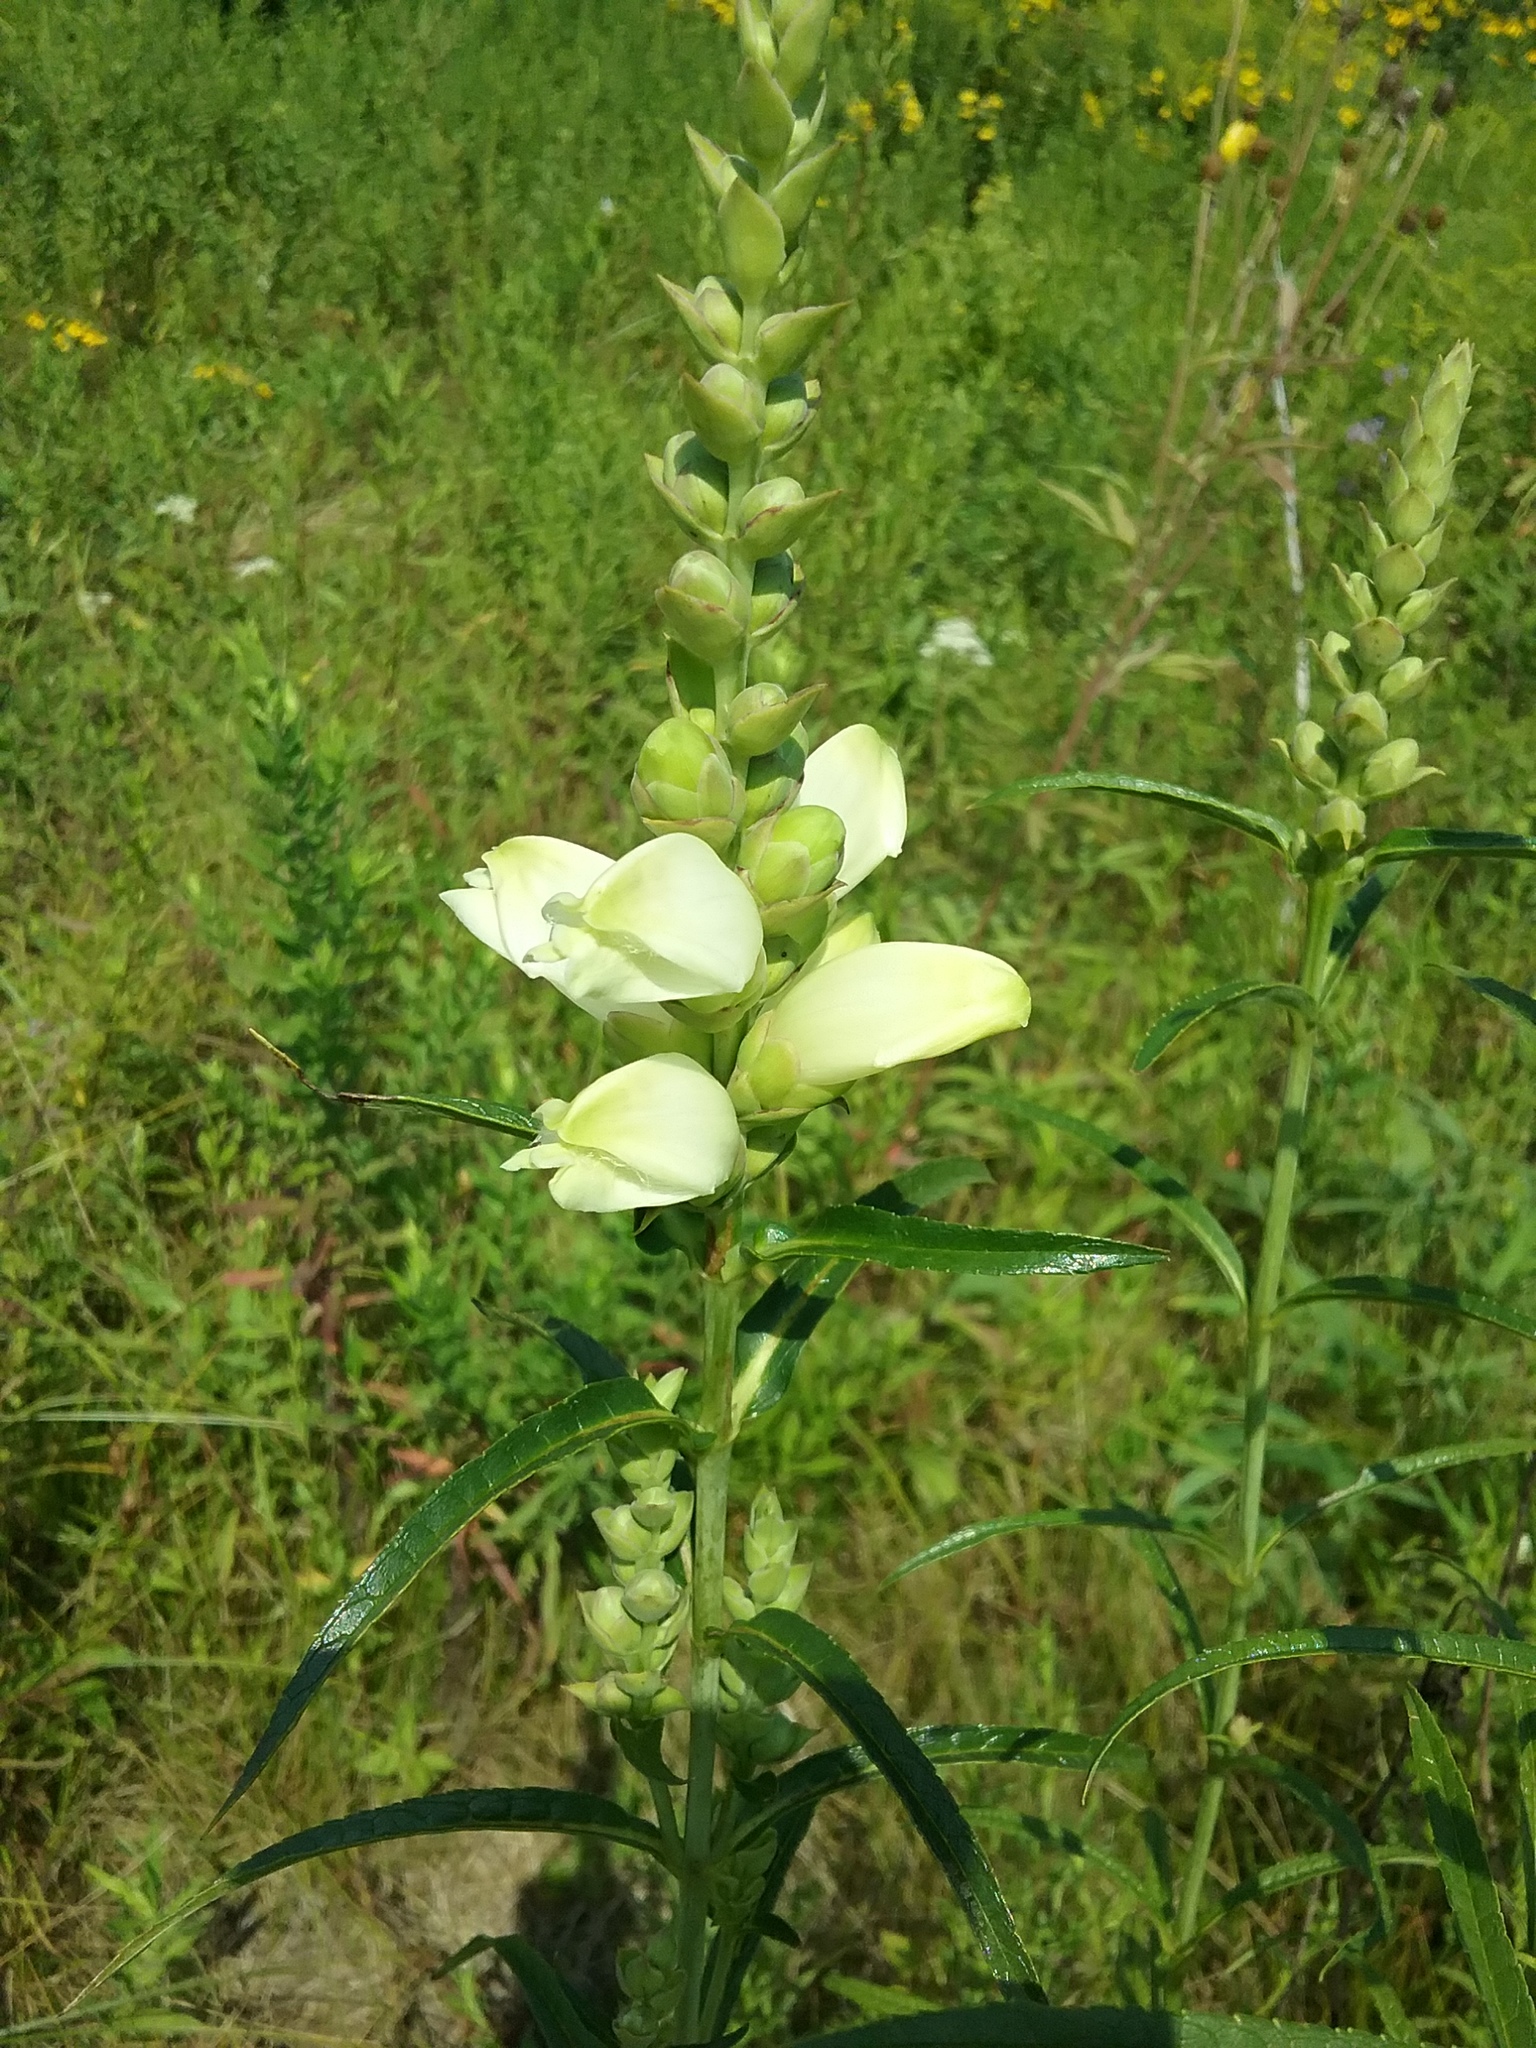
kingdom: Plantae
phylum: Tracheophyta
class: Magnoliopsida
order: Lamiales
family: Plantaginaceae
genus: Chelone
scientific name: Chelone glabra
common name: Snakehead
